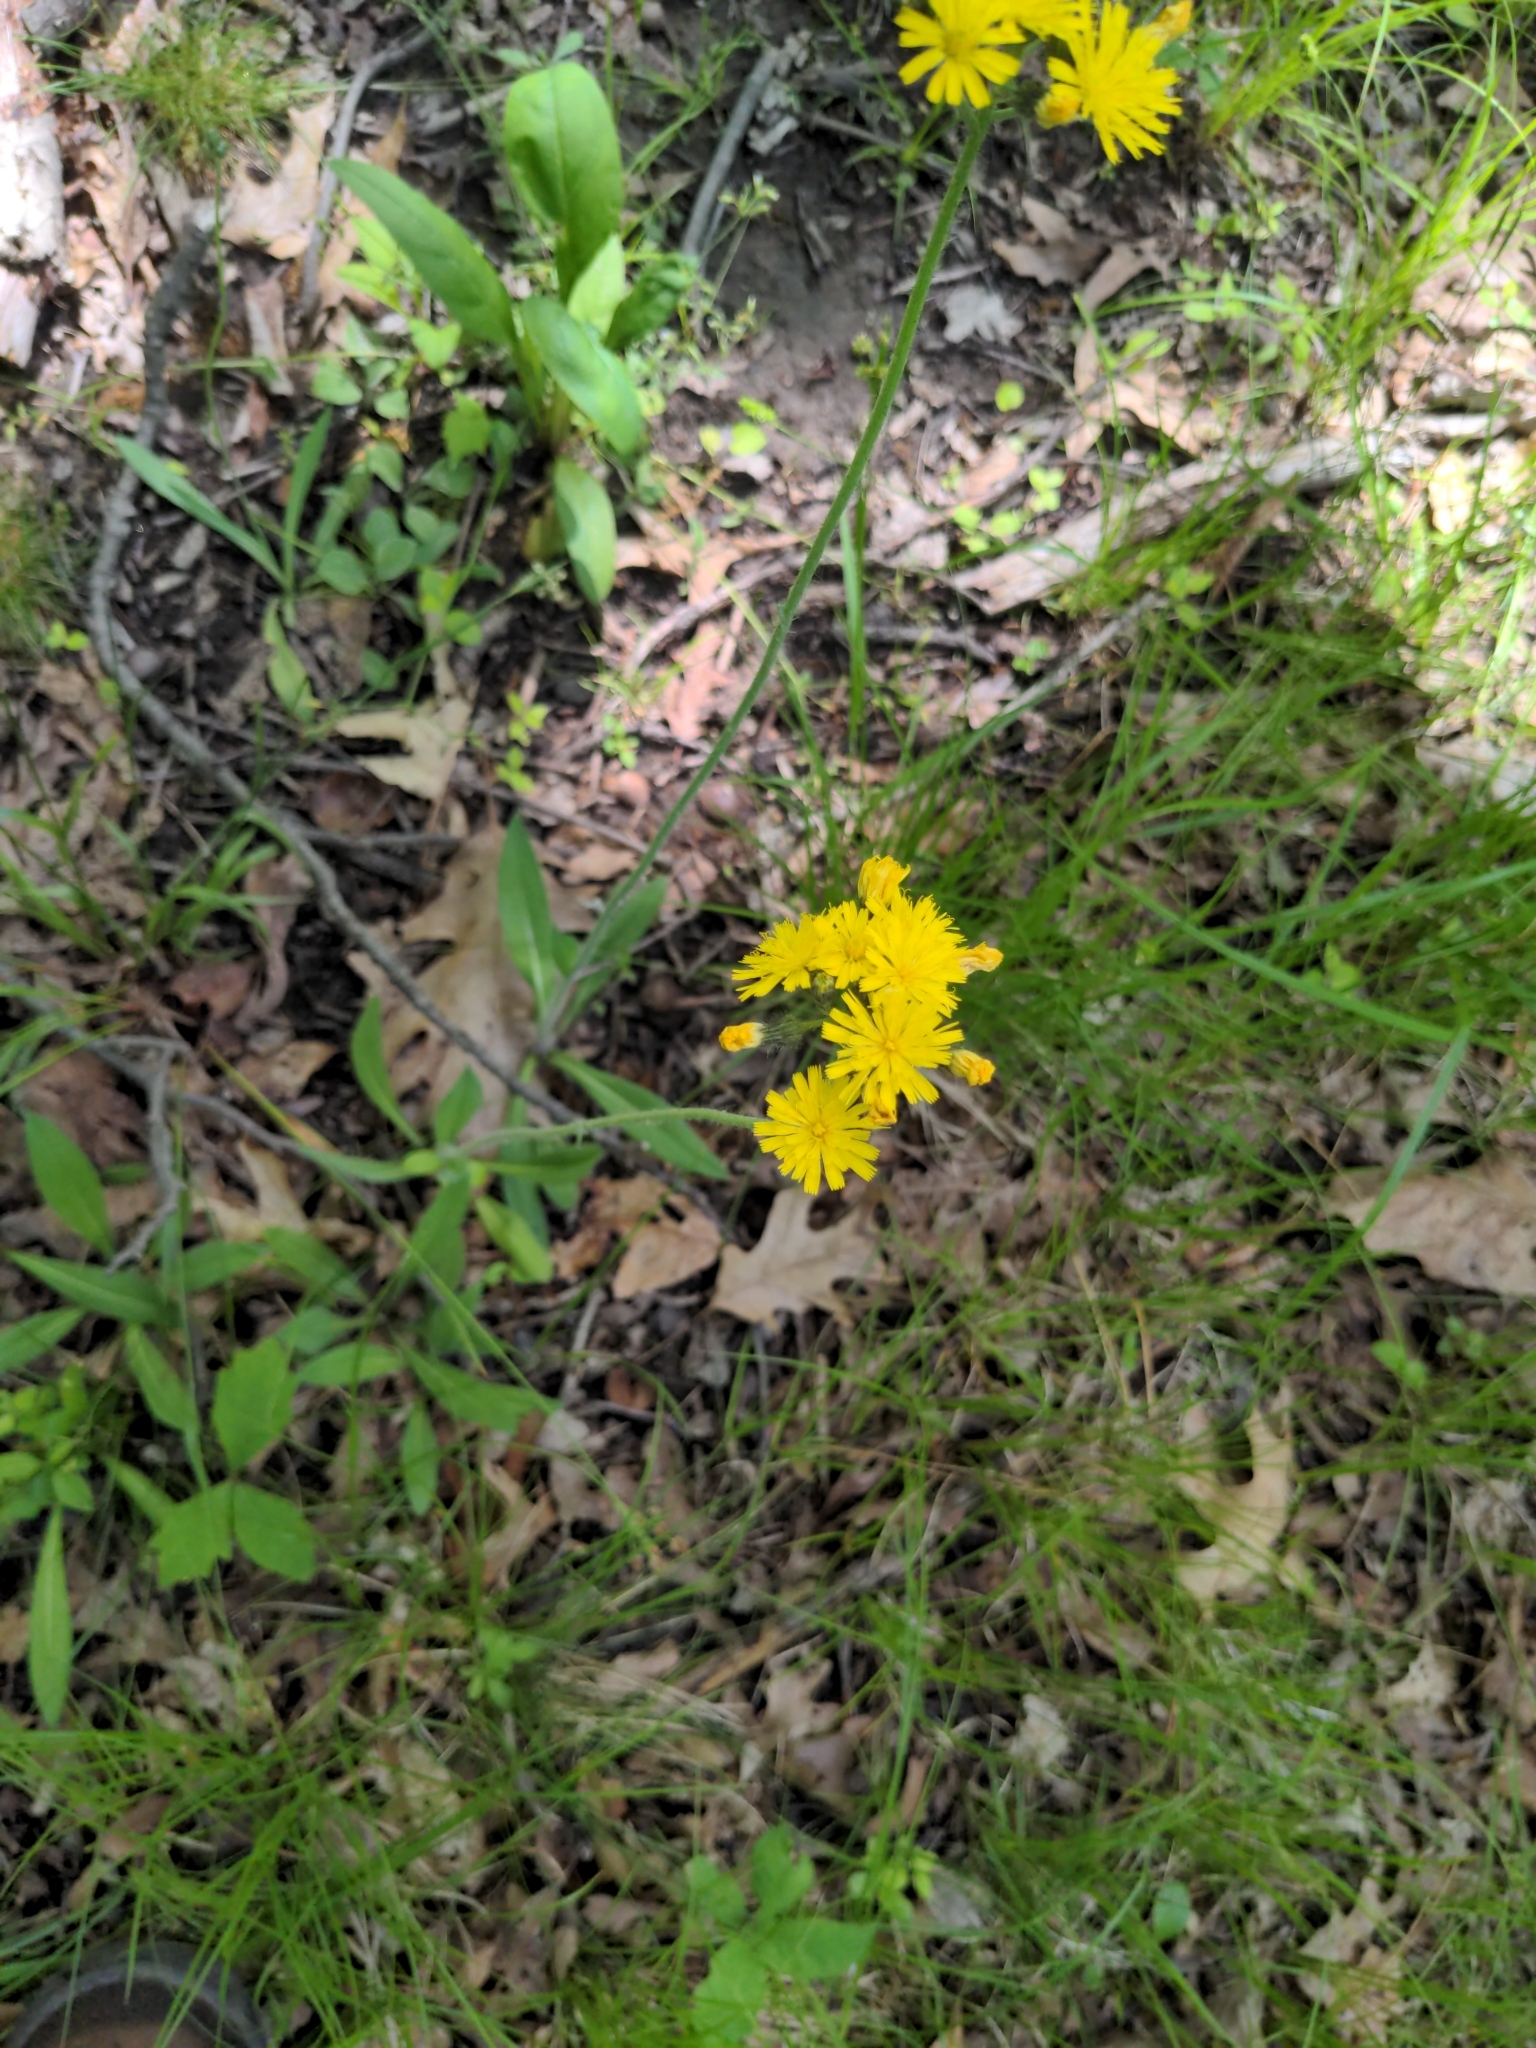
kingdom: Plantae
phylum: Tracheophyta
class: Magnoliopsida
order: Asterales
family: Asteraceae
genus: Pilosella
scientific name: Pilosella caespitosa
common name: Yellow fox-and-cubs
